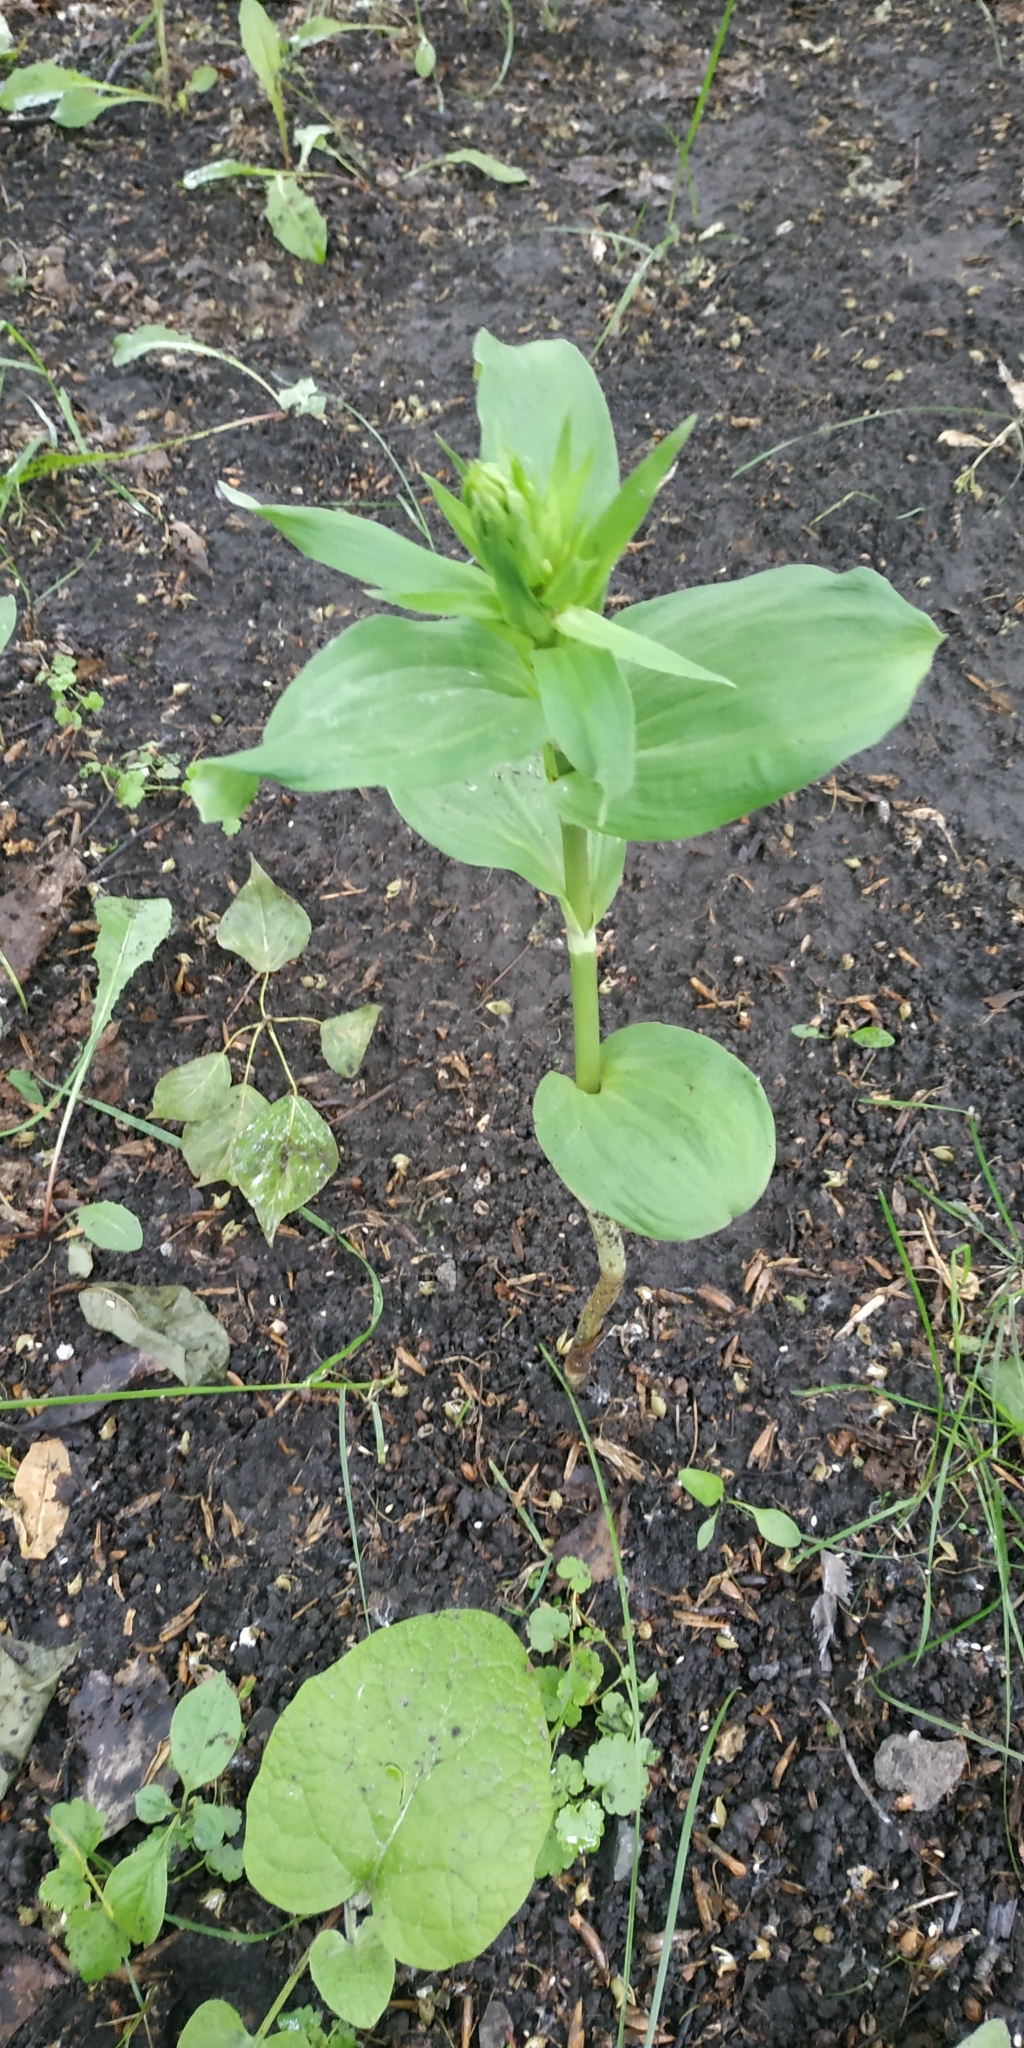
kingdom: Plantae
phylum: Tracheophyta
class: Liliopsida
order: Asparagales
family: Orchidaceae
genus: Epipactis
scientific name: Epipactis helleborine
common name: Broad-leaved helleborine
